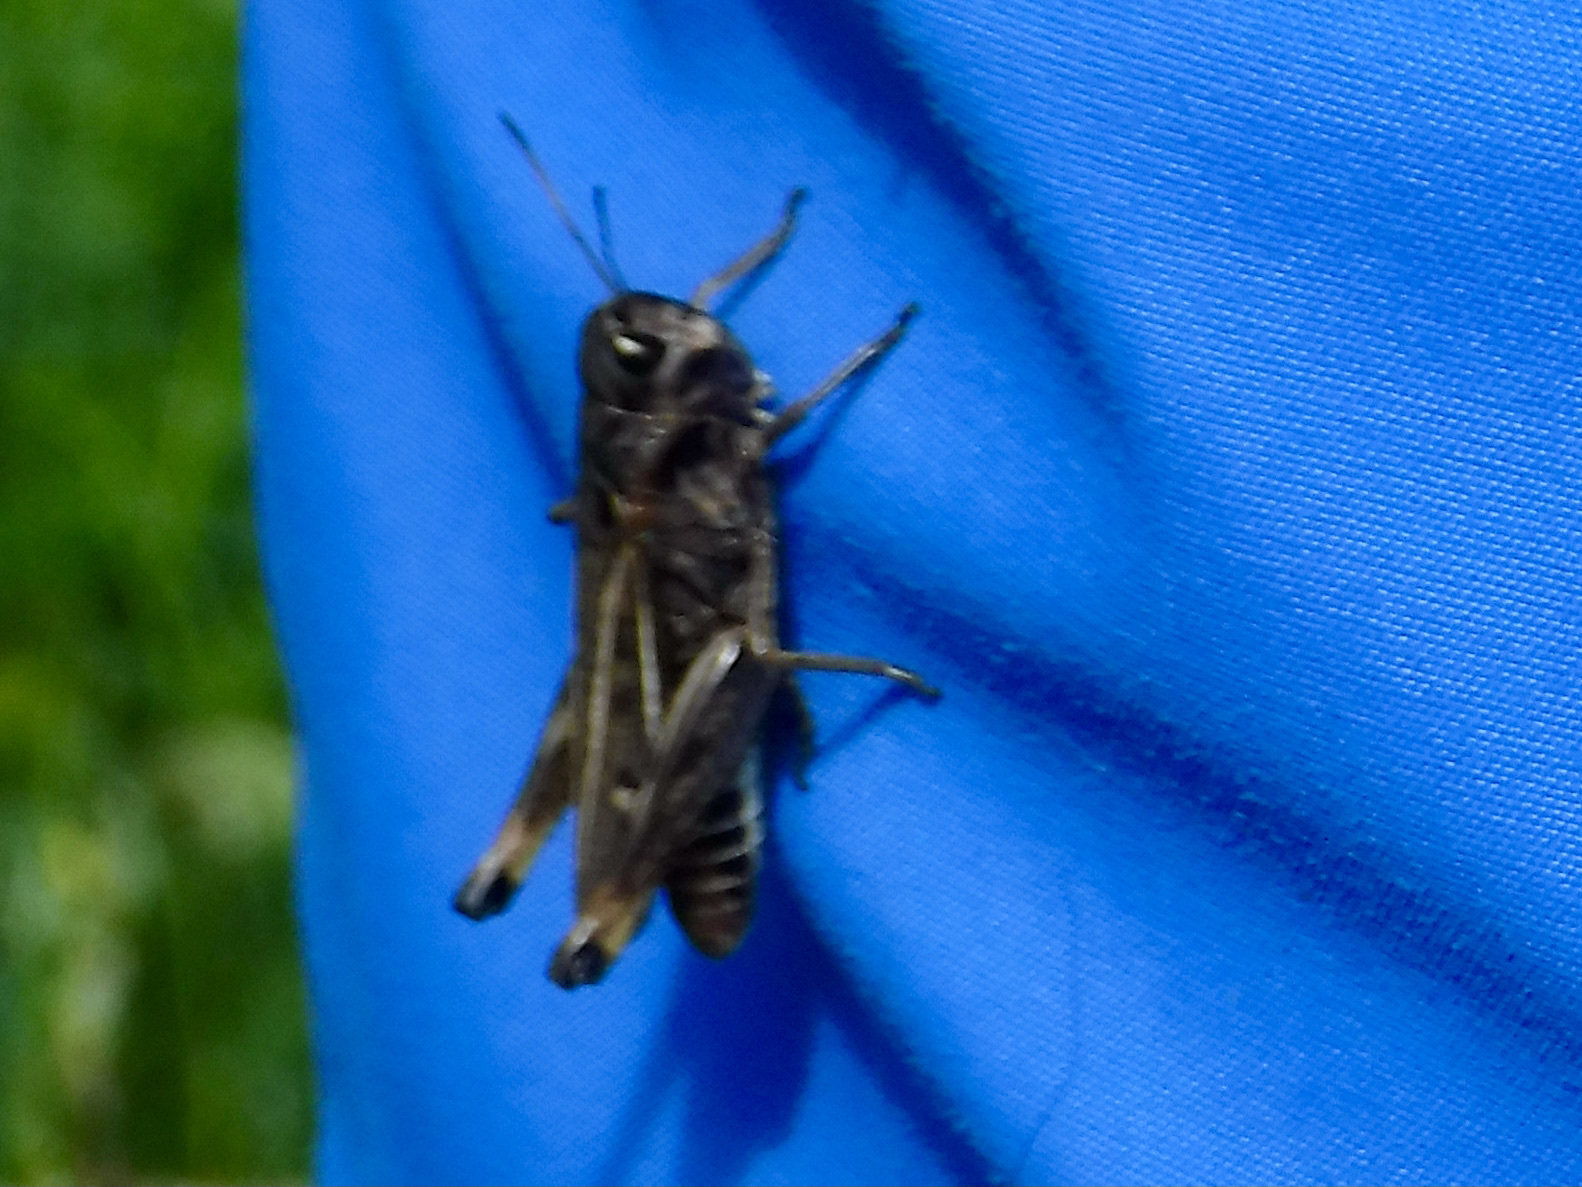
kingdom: Animalia
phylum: Arthropoda
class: Insecta
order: Orthoptera
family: Acrididae
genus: Gomphocerus
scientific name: Gomphocerus sibiricus
